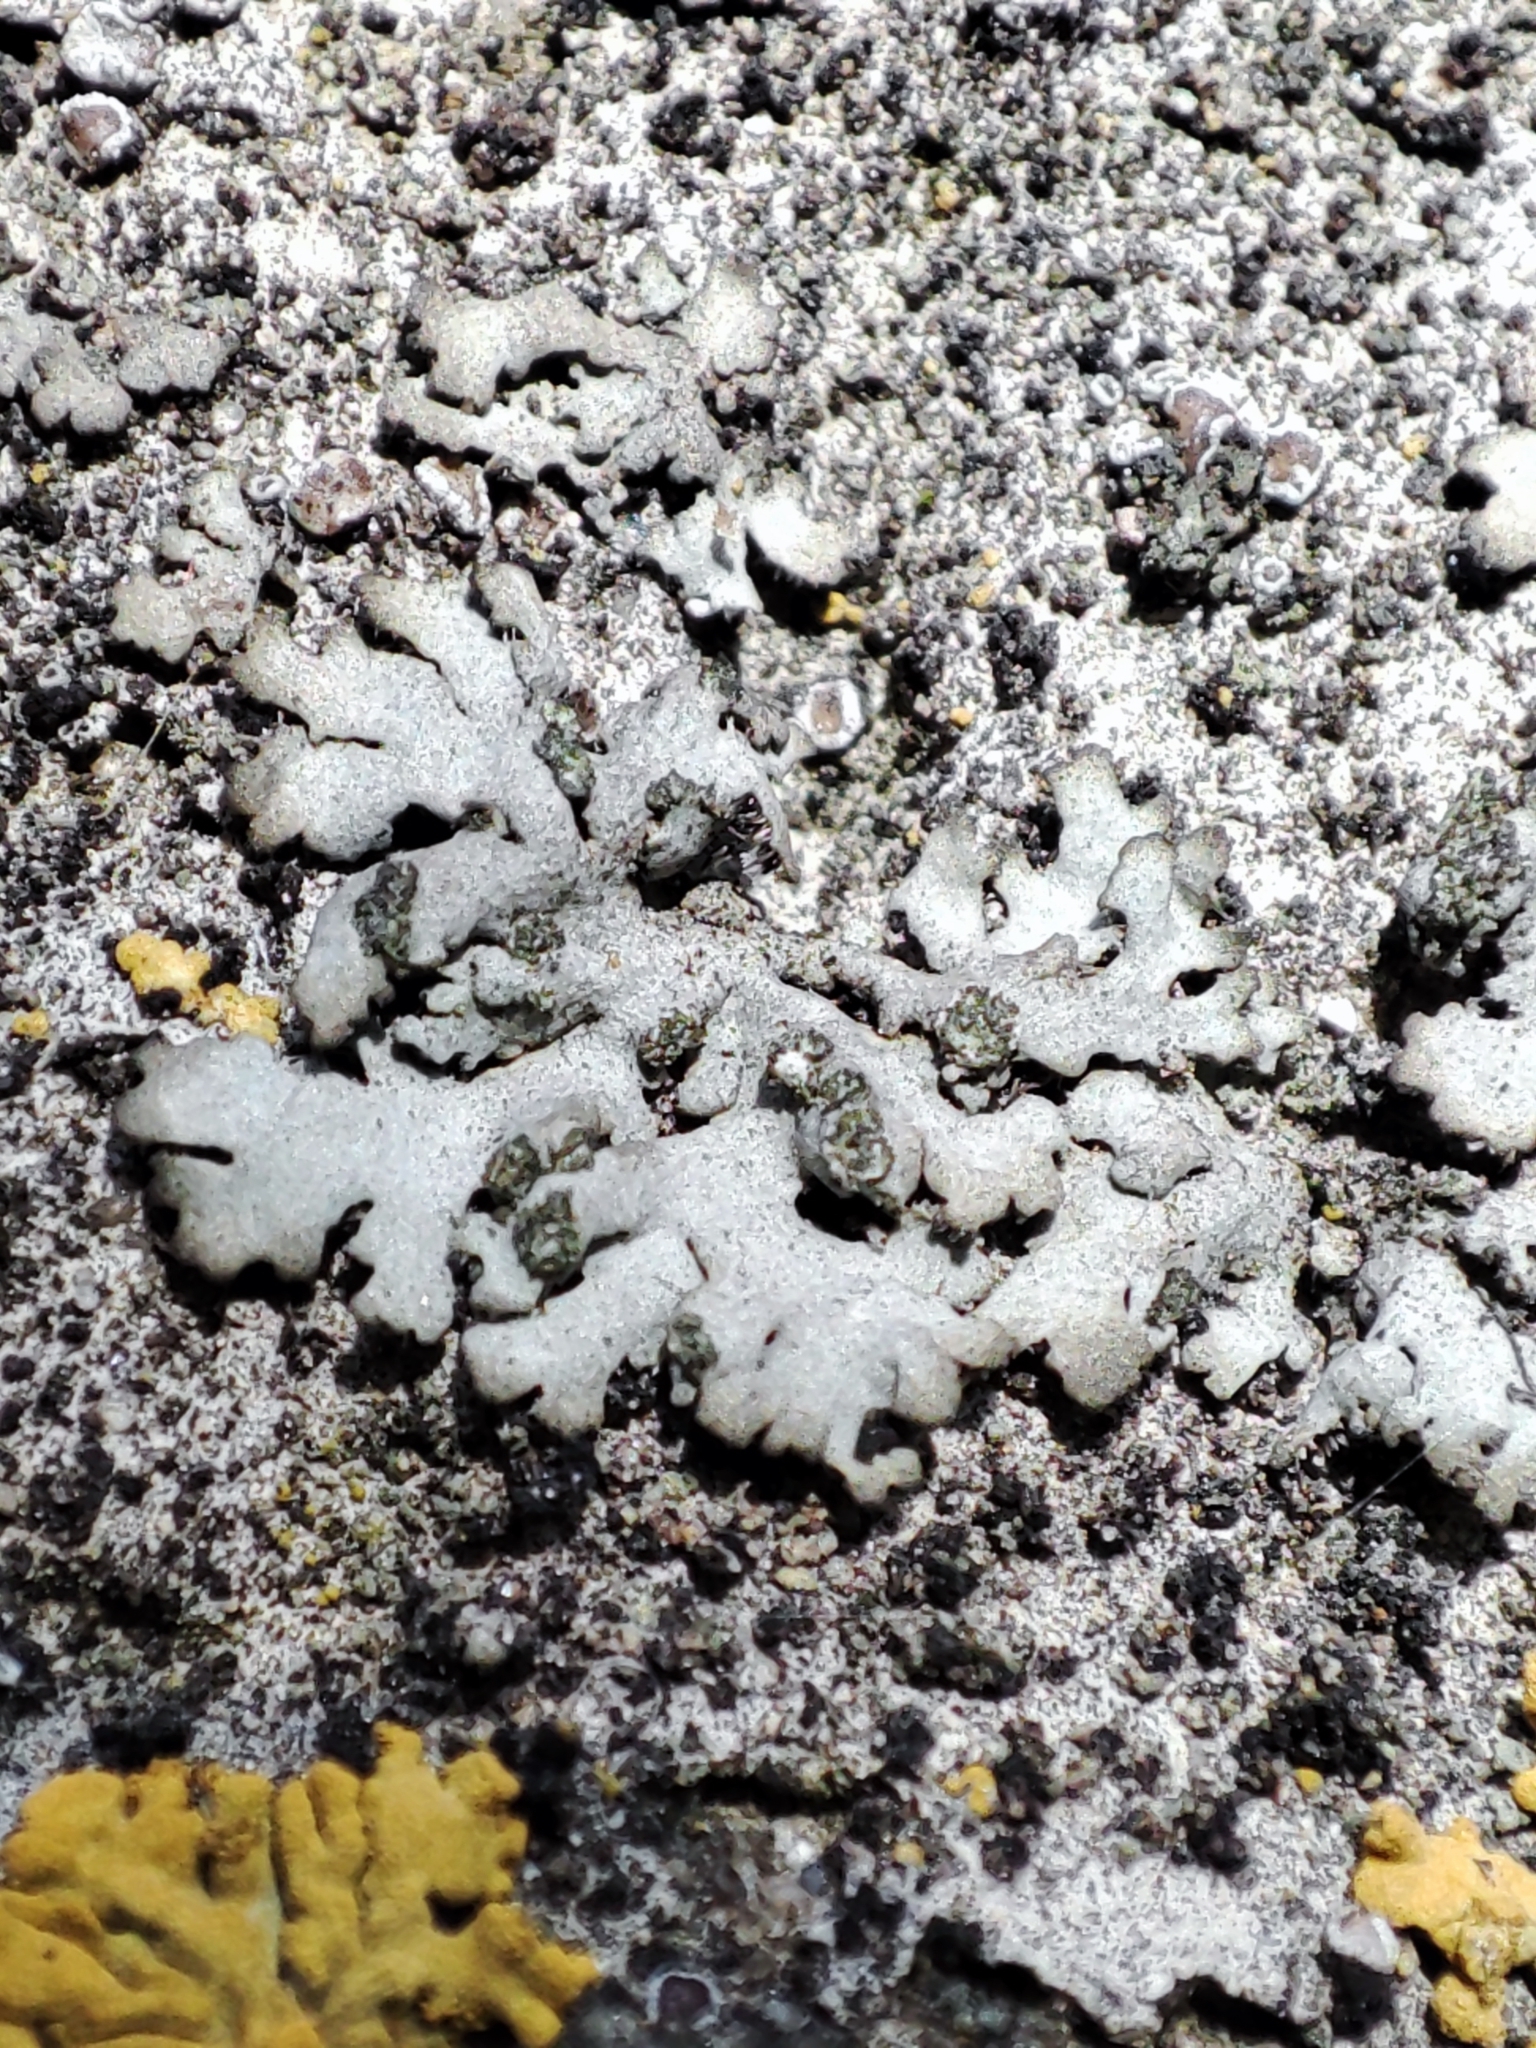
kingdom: Fungi
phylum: Ascomycota
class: Lecanoromycetes
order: Caliciales
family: Physciaceae
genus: Phaeophyscia
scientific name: Phaeophyscia orbicularis
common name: Mealy shadow lichen
